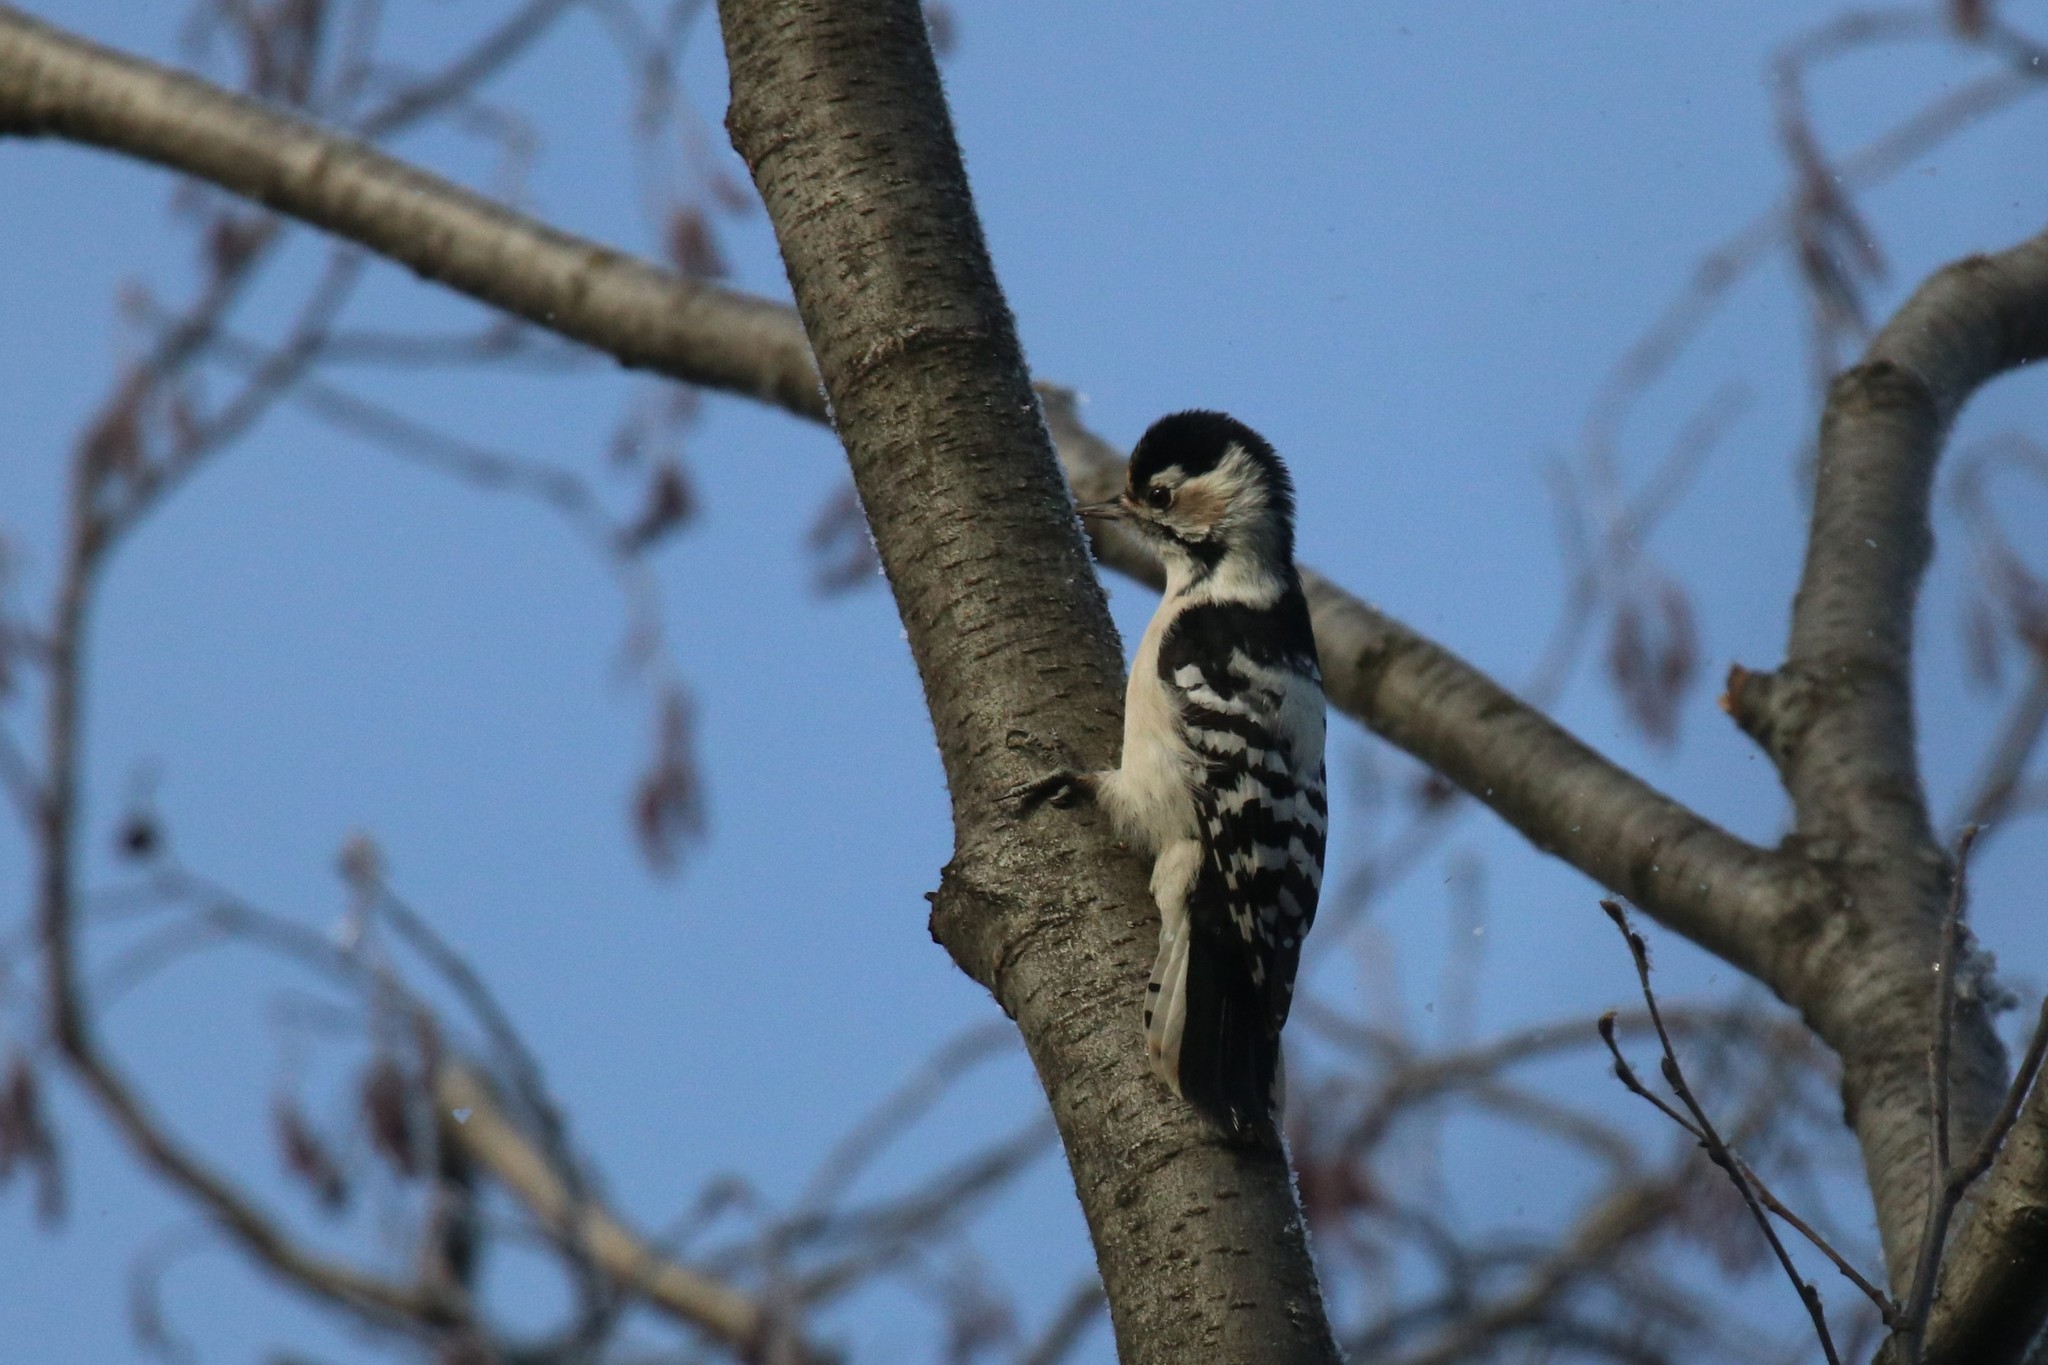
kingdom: Animalia
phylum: Chordata
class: Aves
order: Piciformes
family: Picidae
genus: Dryobates
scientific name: Dryobates minor
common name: Lesser spotted woodpecker
